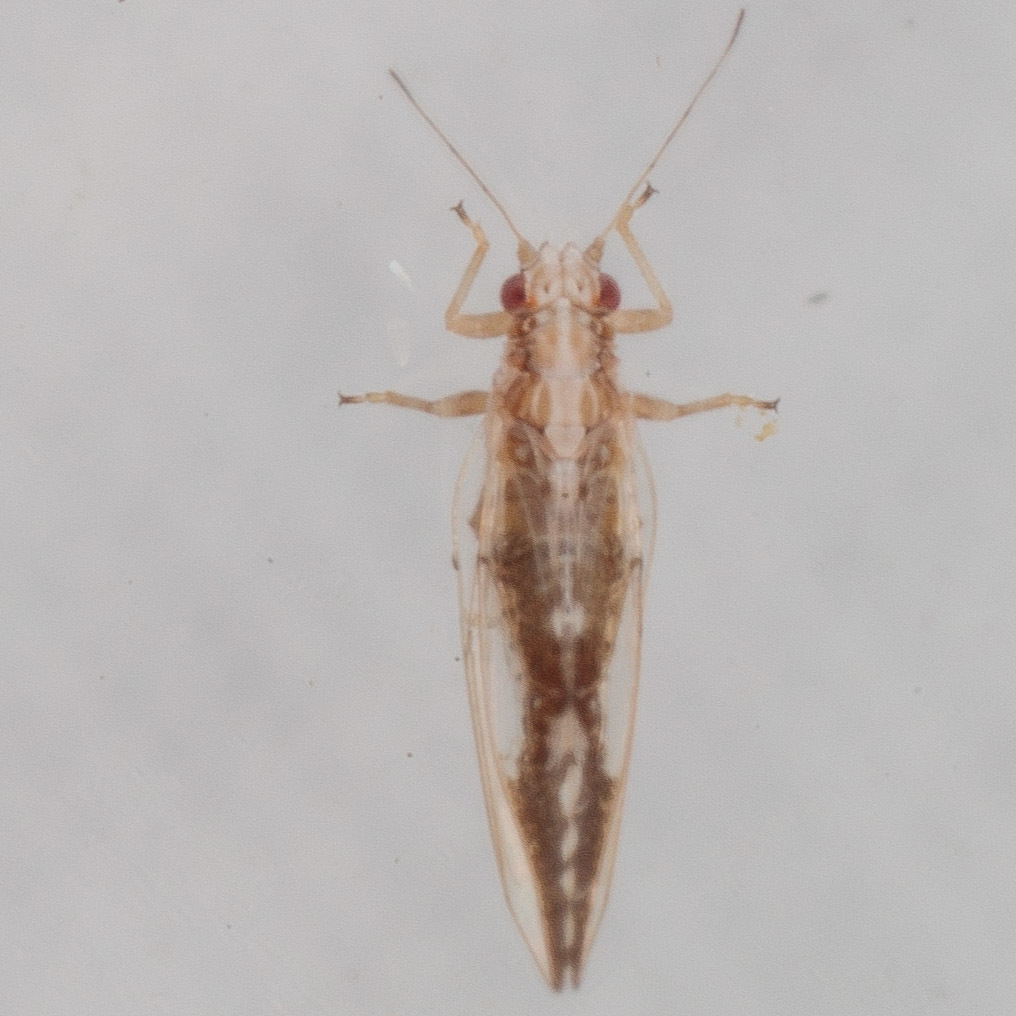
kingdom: Animalia
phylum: Arthropoda
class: Insecta
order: Hemiptera
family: Triozidae
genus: Leuronota
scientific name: Leuronota maculata
